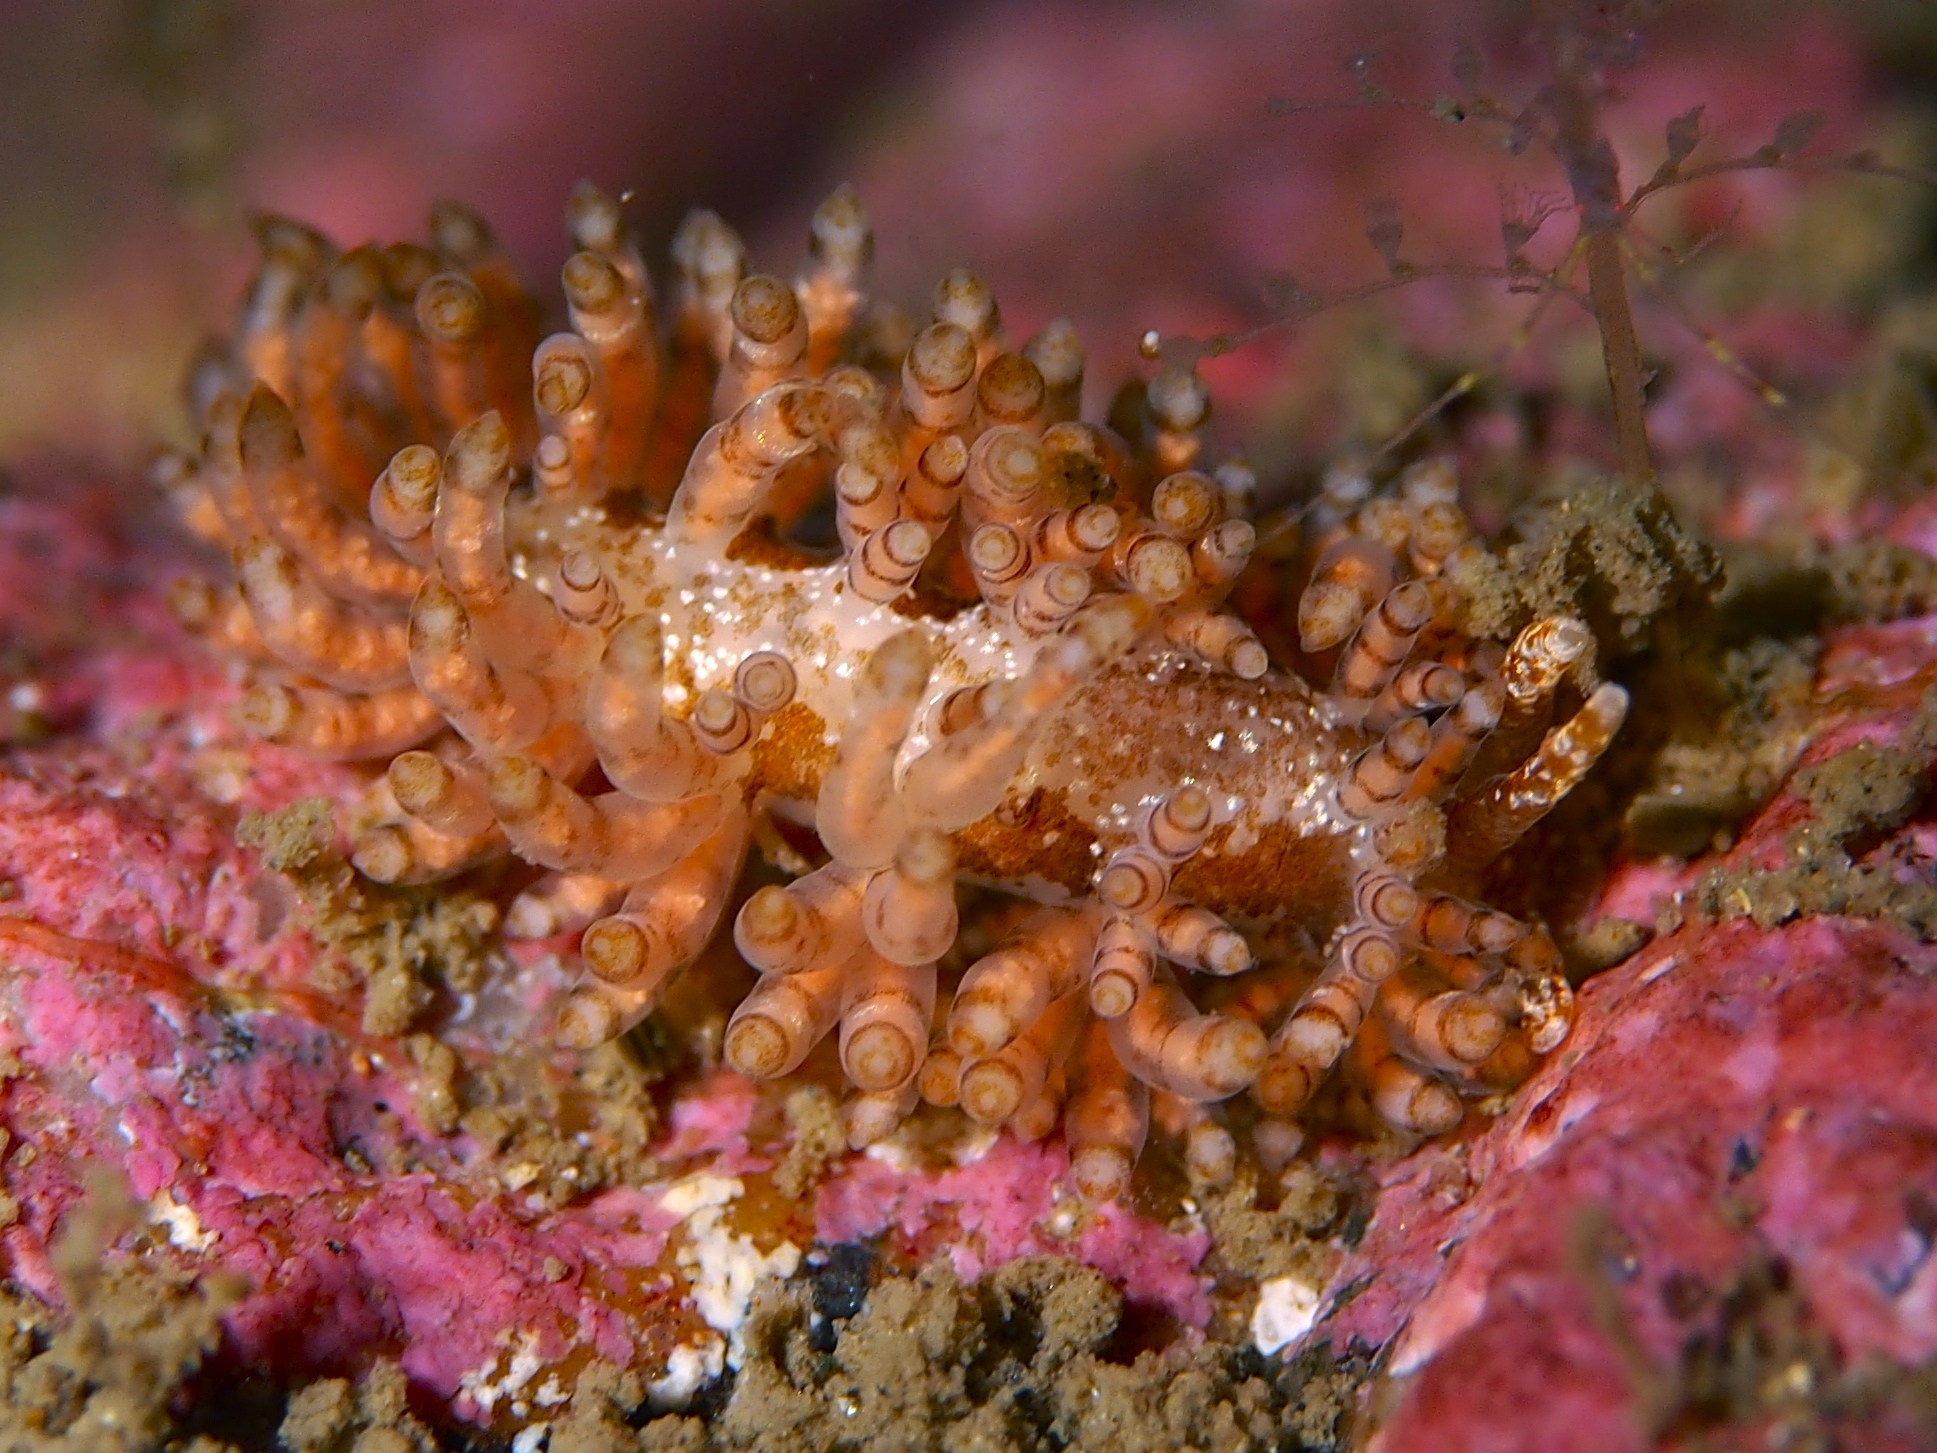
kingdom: Animalia
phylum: Mollusca
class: Gastropoda
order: Nudibranchia
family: Eubranchidae
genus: Eubranchus
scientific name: Eubranchus vittatus
